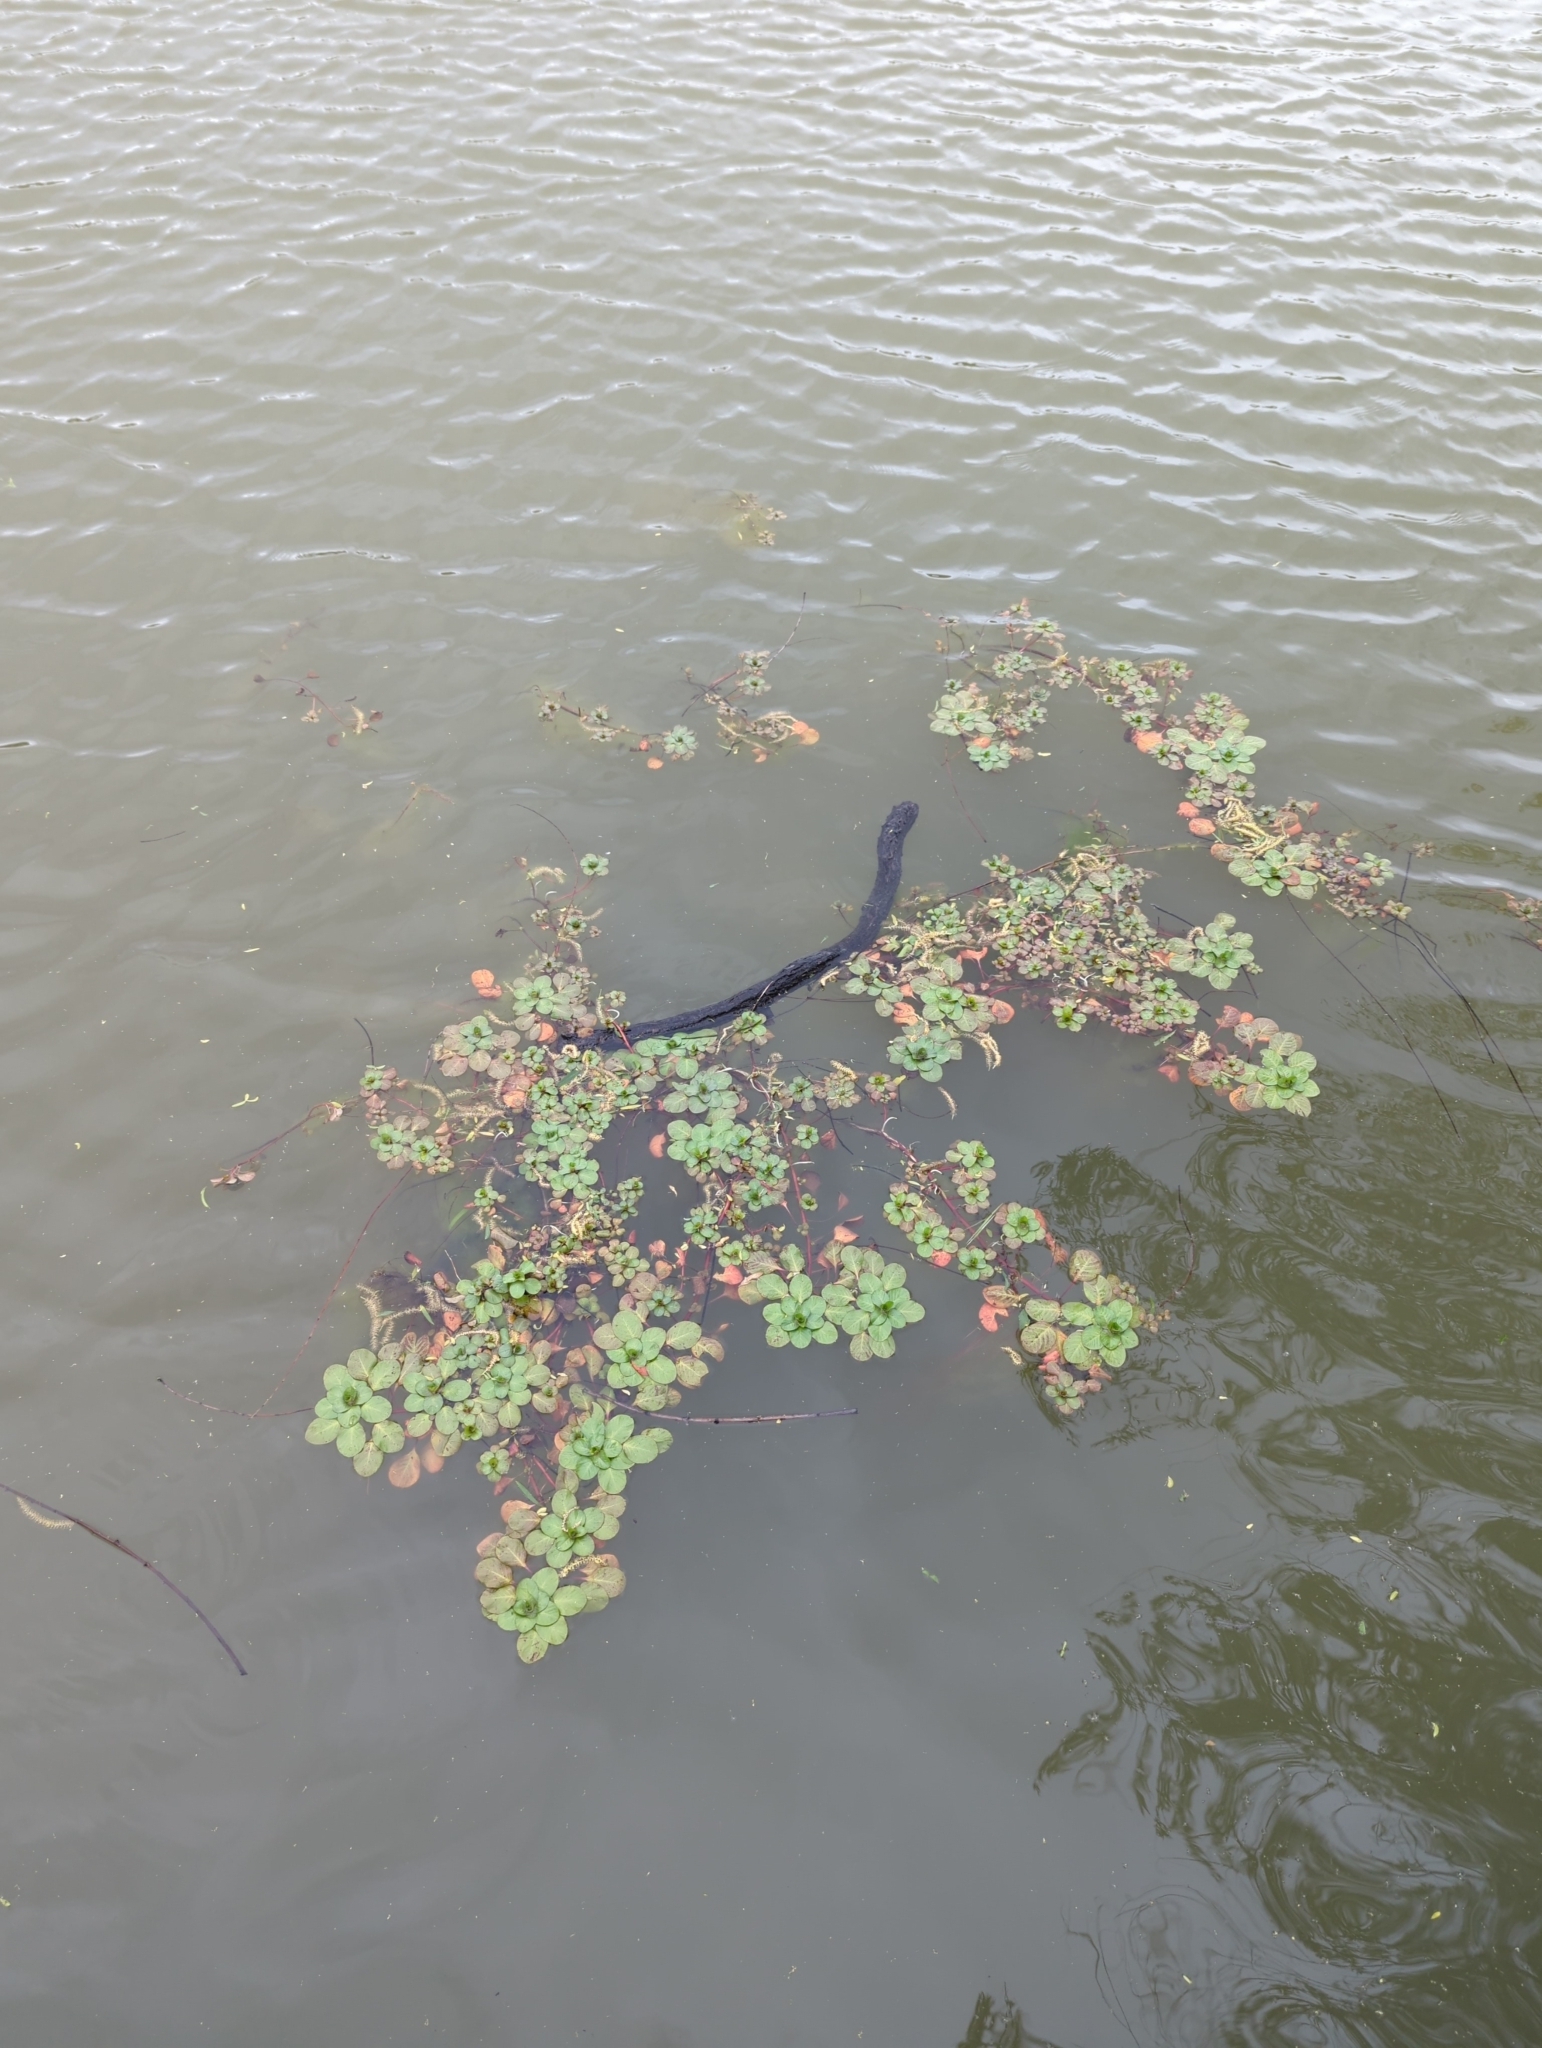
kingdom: Plantae
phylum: Tracheophyta
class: Magnoliopsida
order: Myrtales
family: Onagraceae
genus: Ludwigia
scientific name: Ludwigia peploides
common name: Floating primrose-willow
